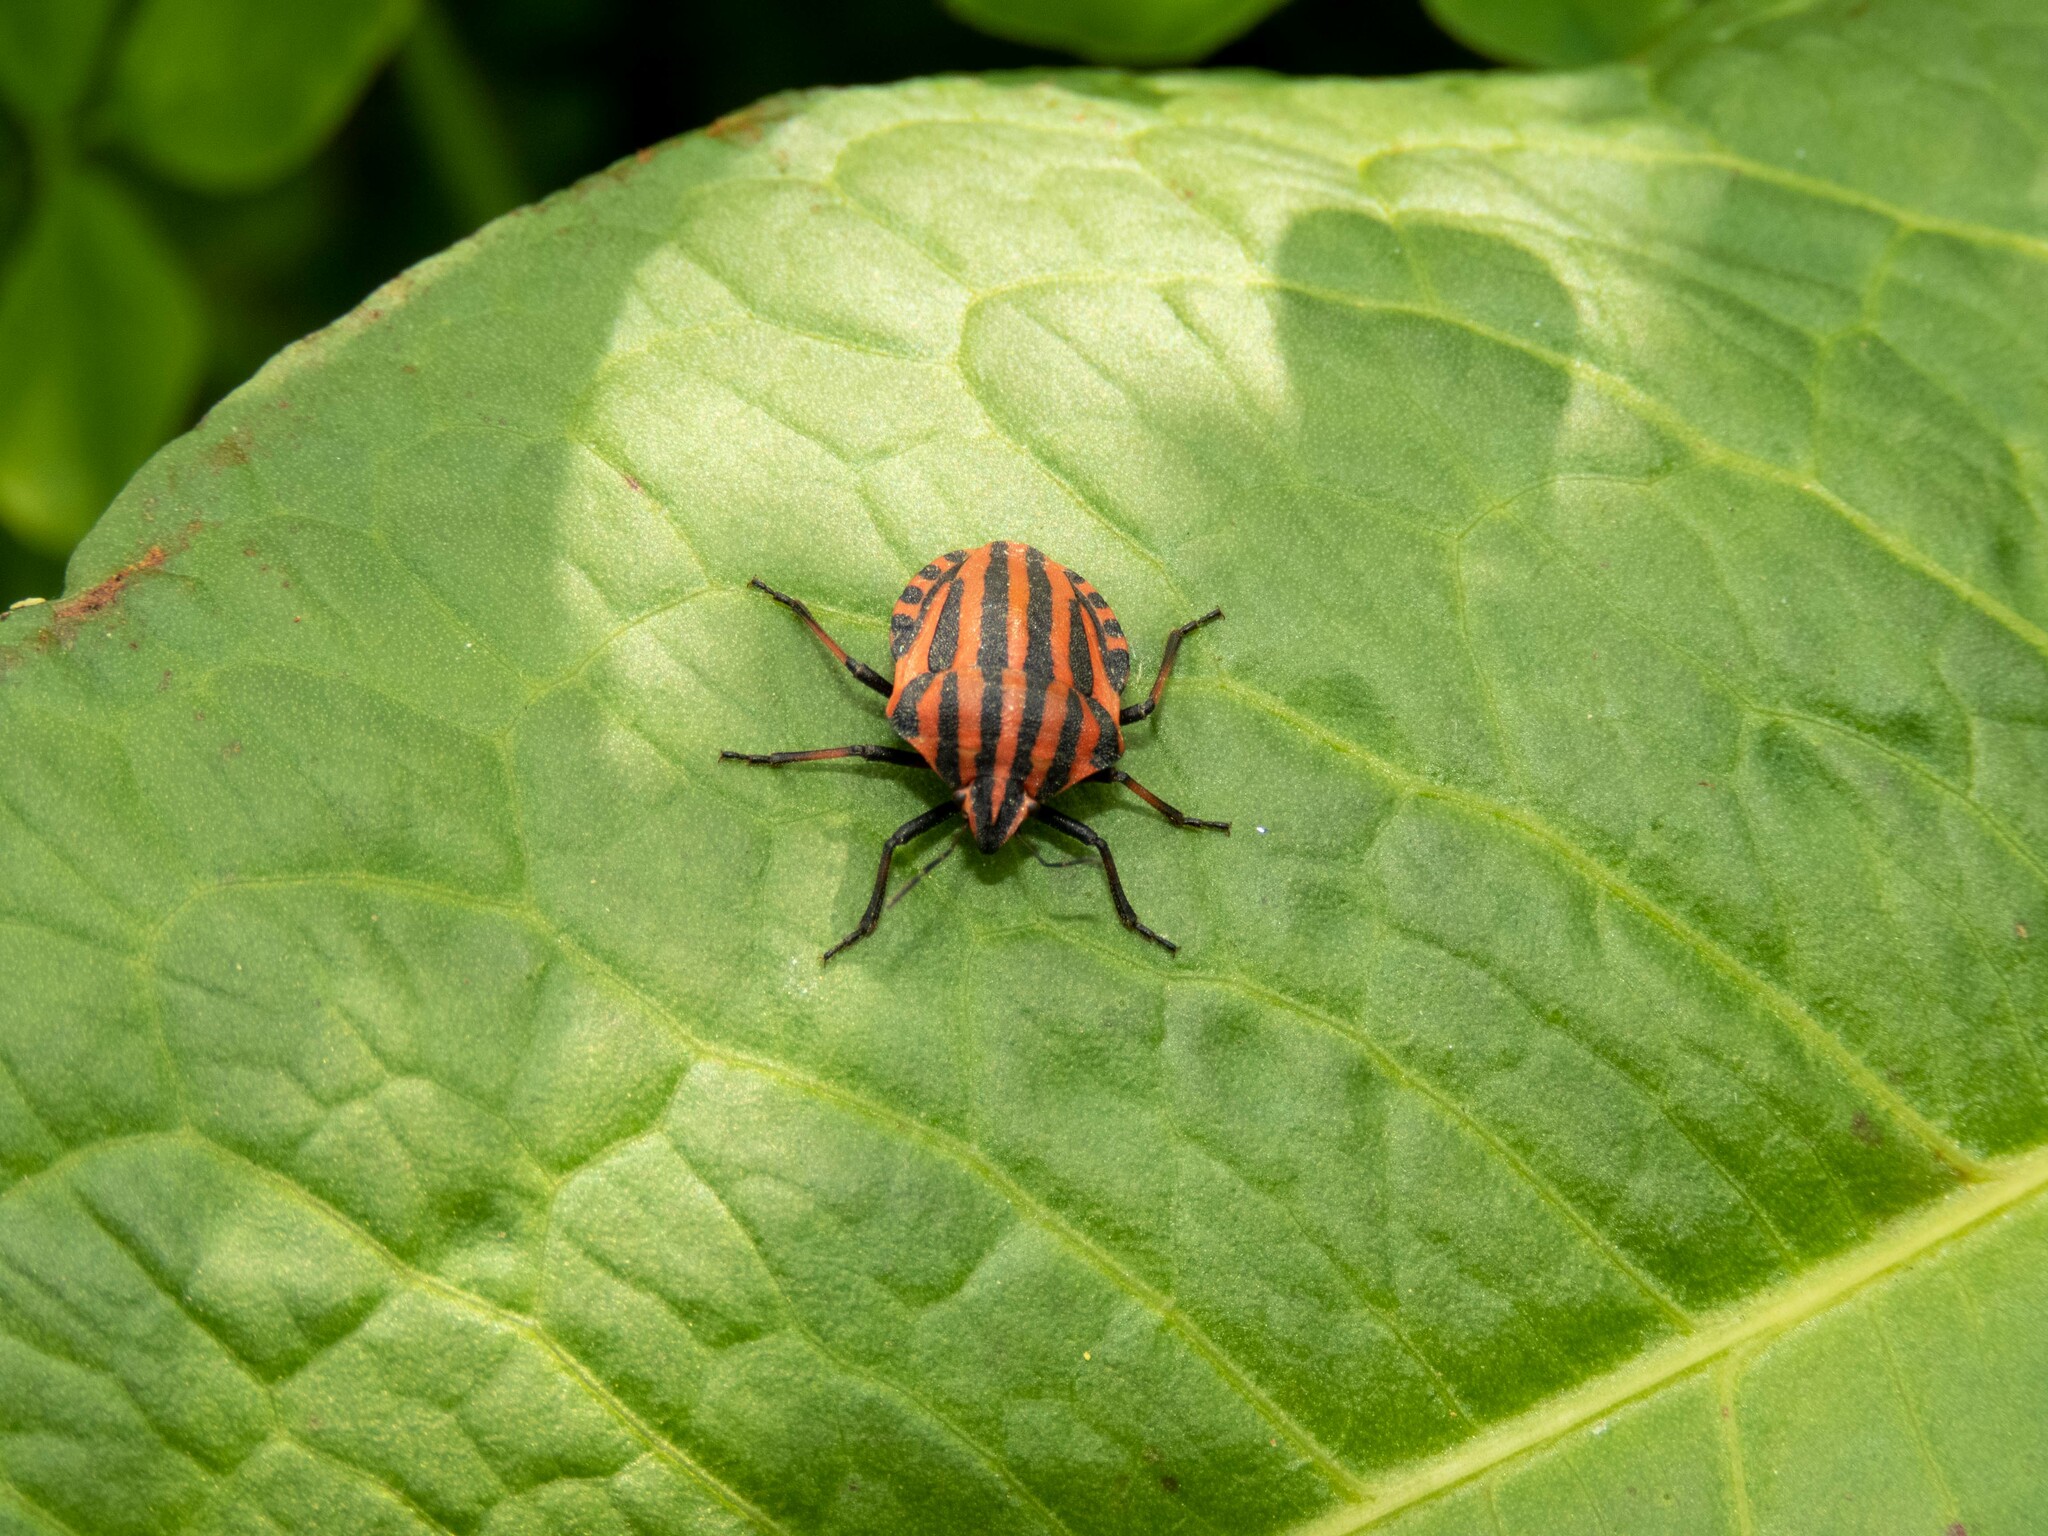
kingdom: Animalia
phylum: Arthropoda
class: Insecta
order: Hemiptera
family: Pentatomidae
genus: Graphosoma
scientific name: Graphosoma italicum
